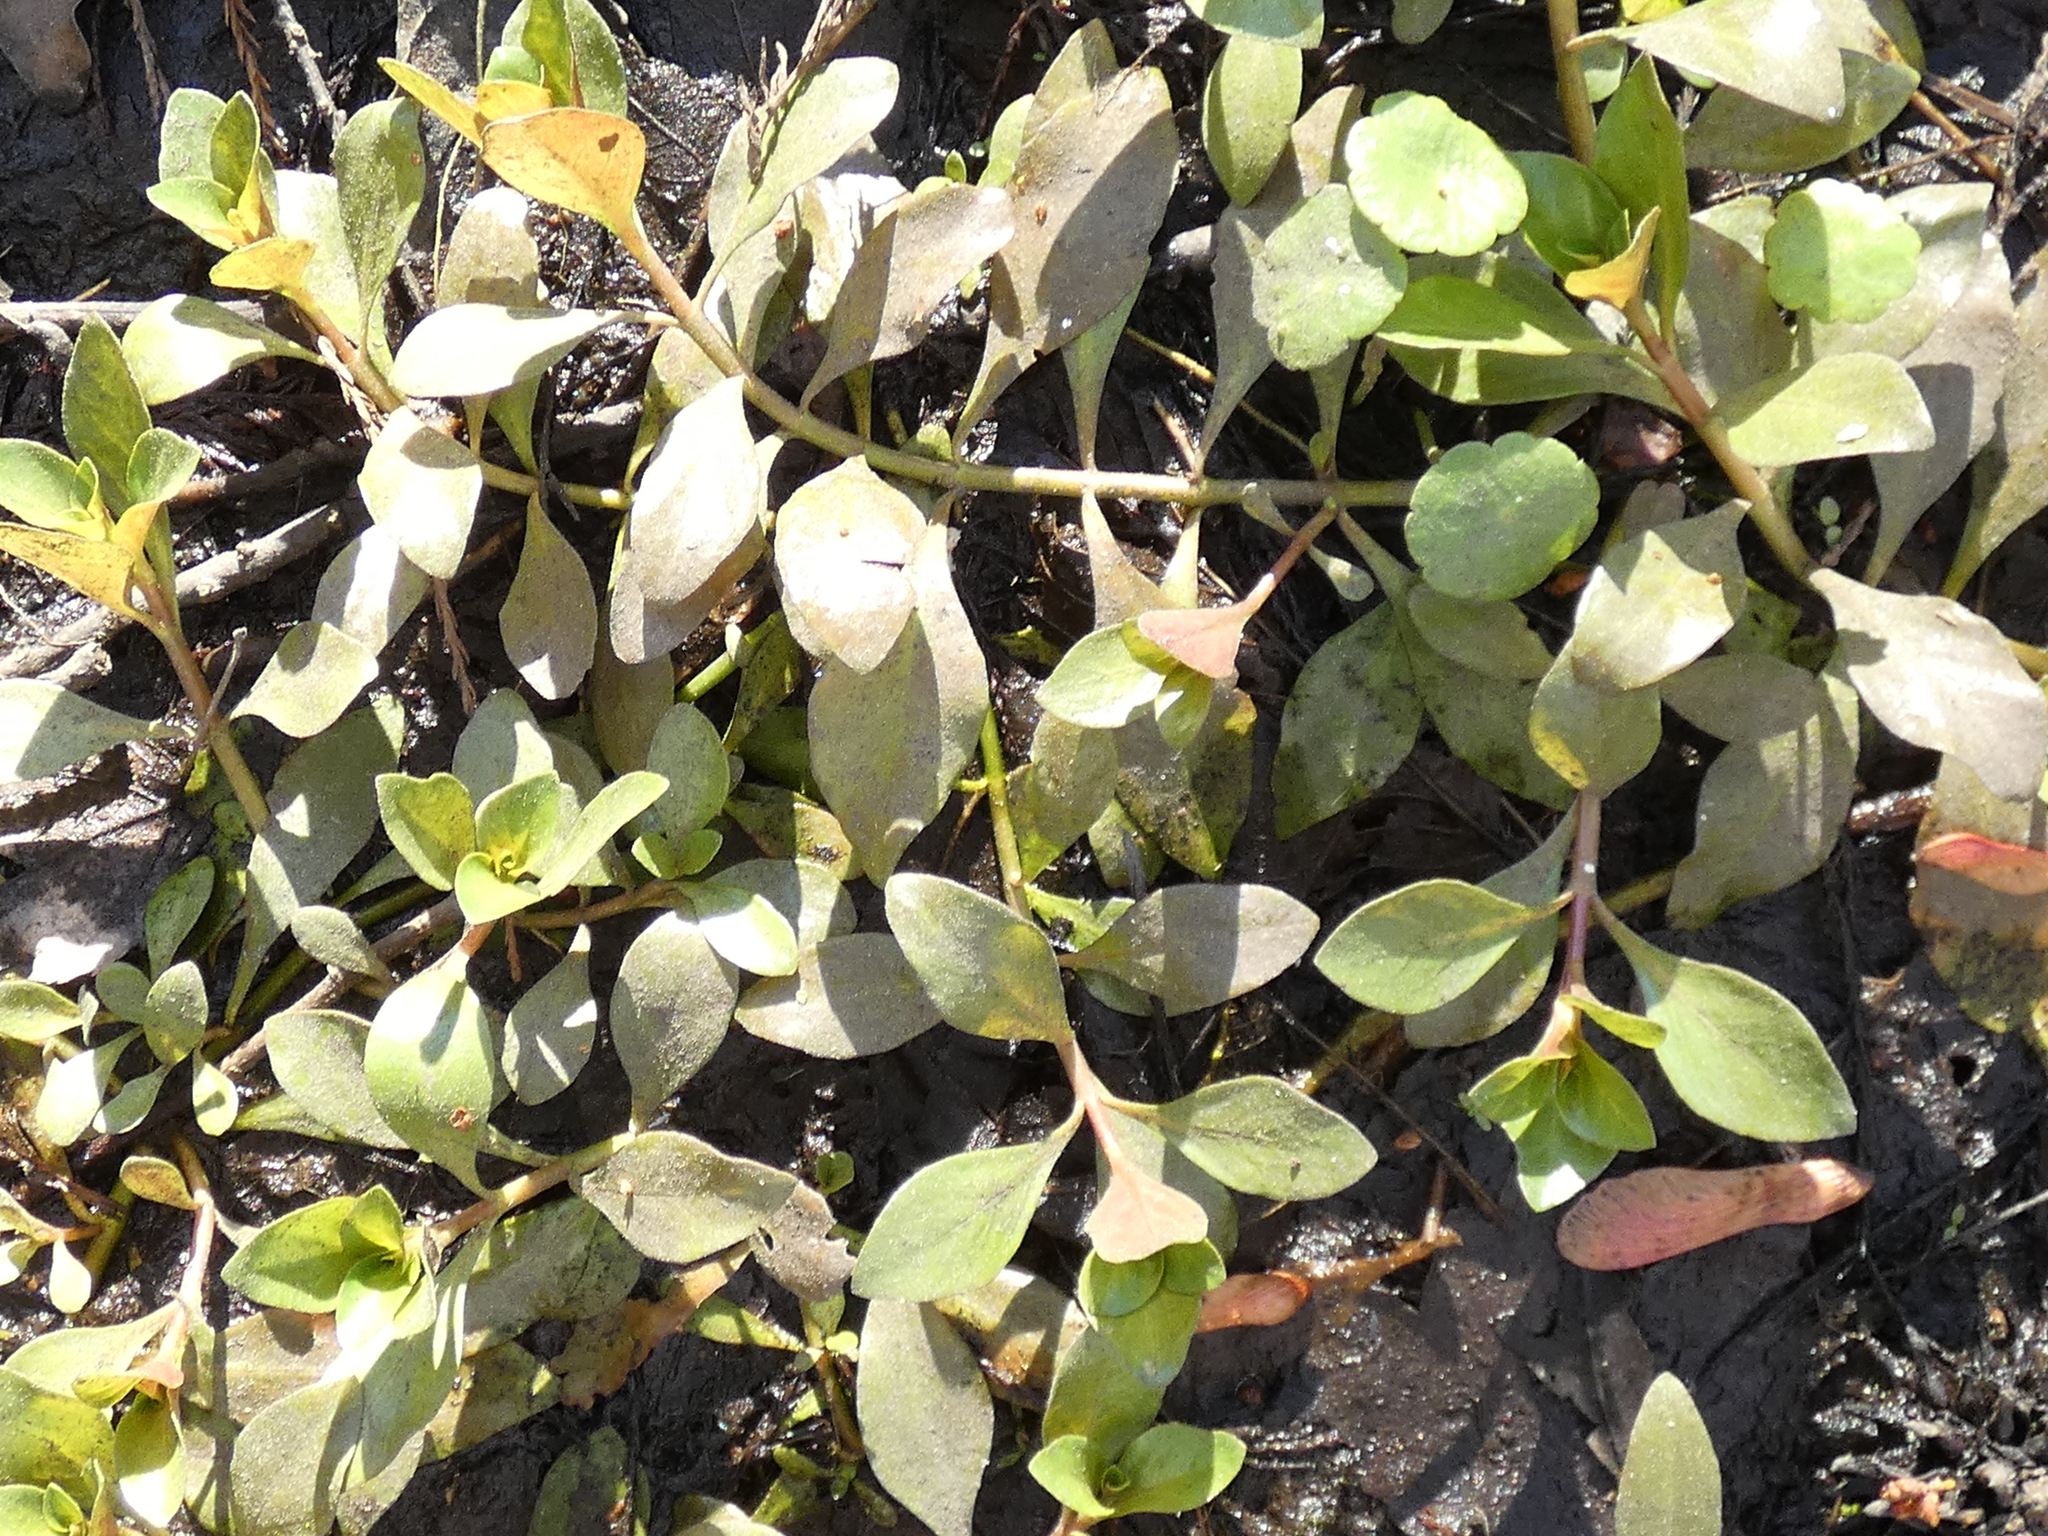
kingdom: Plantae
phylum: Tracheophyta
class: Magnoliopsida
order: Myrtales
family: Onagraceae
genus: Ludwigia
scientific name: Ludwigia repens
